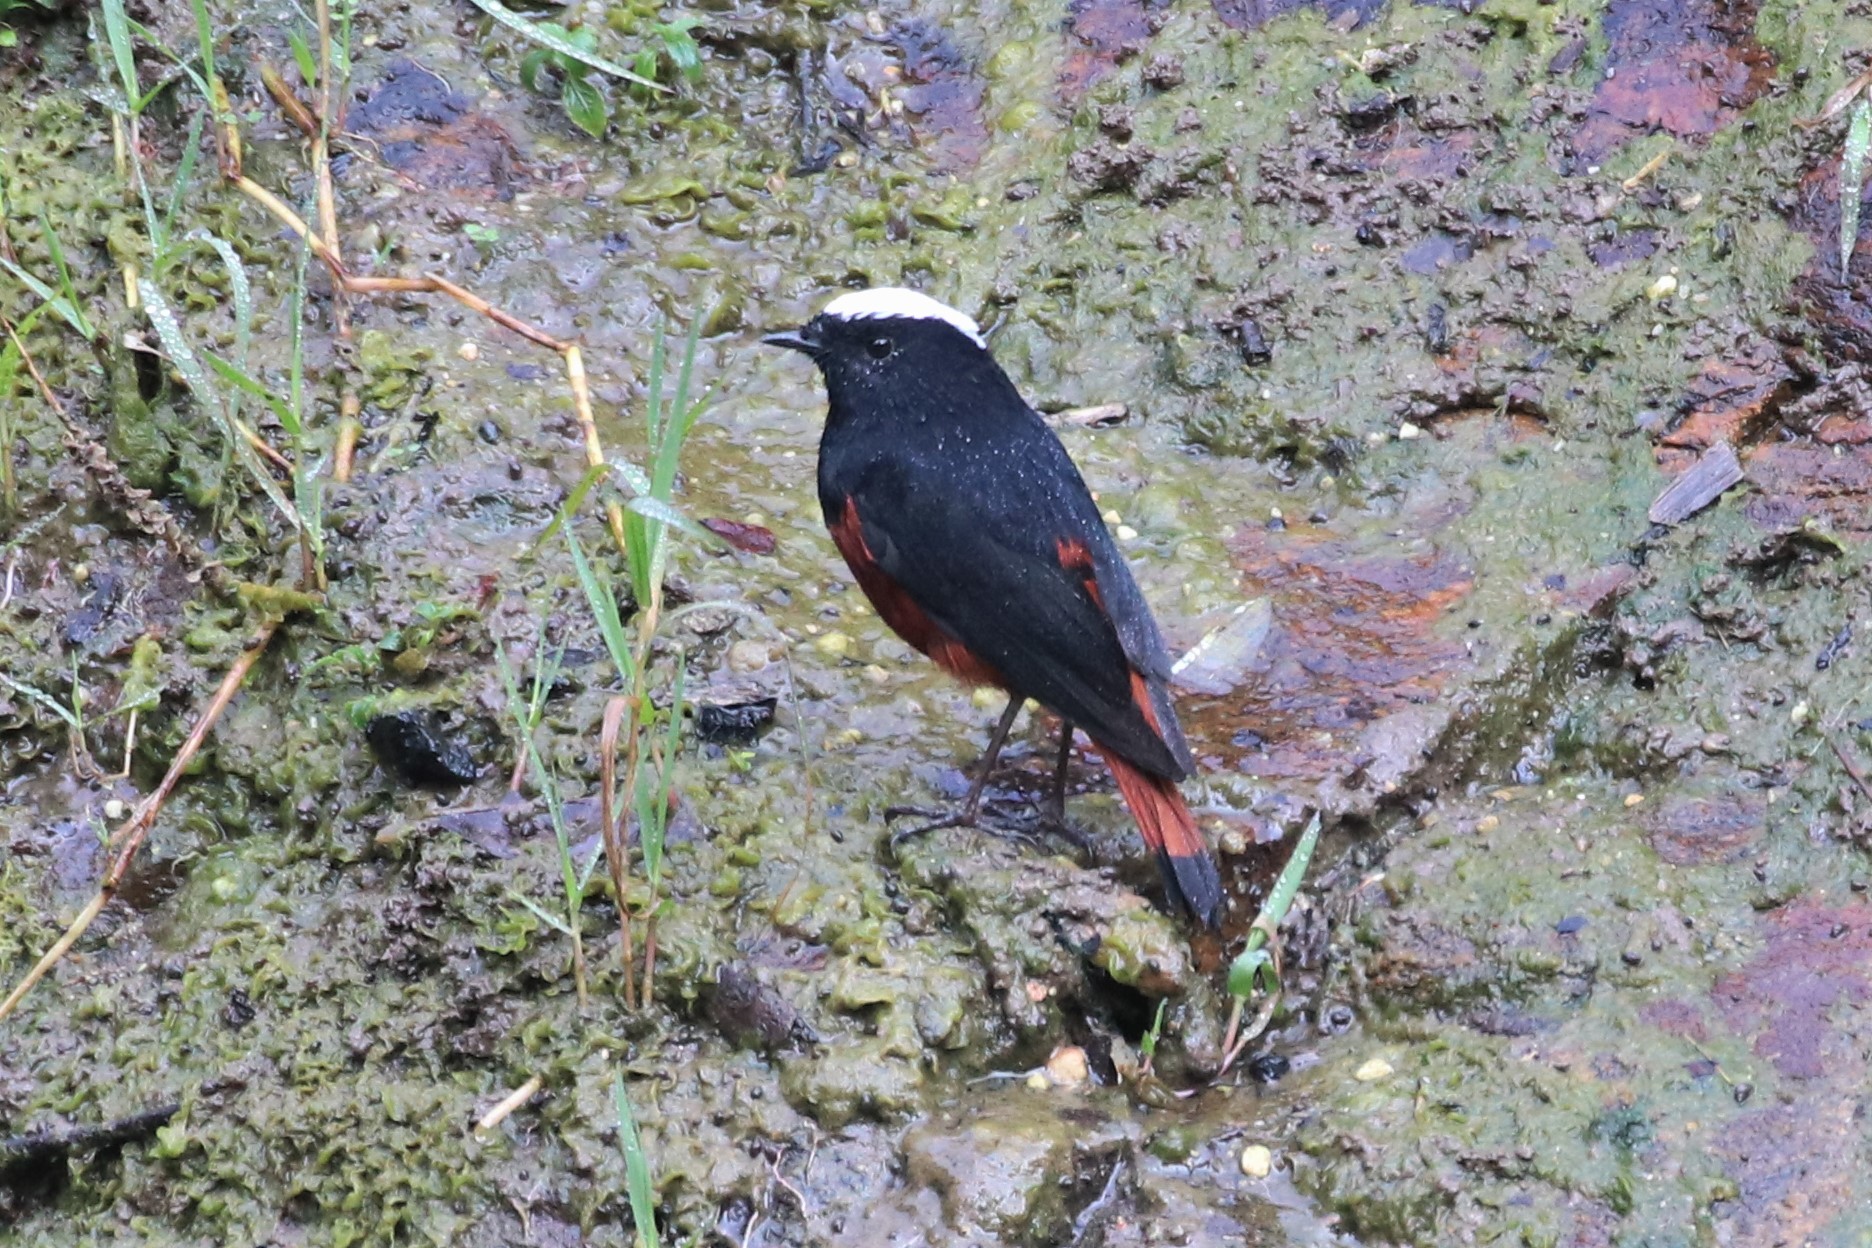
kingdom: Animalia
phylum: Chordata
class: Aves
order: Passeriformes
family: Muscicapidae
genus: Chaimarrornis
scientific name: Chaimarrornis leucocephalus
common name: White-capped redstart
